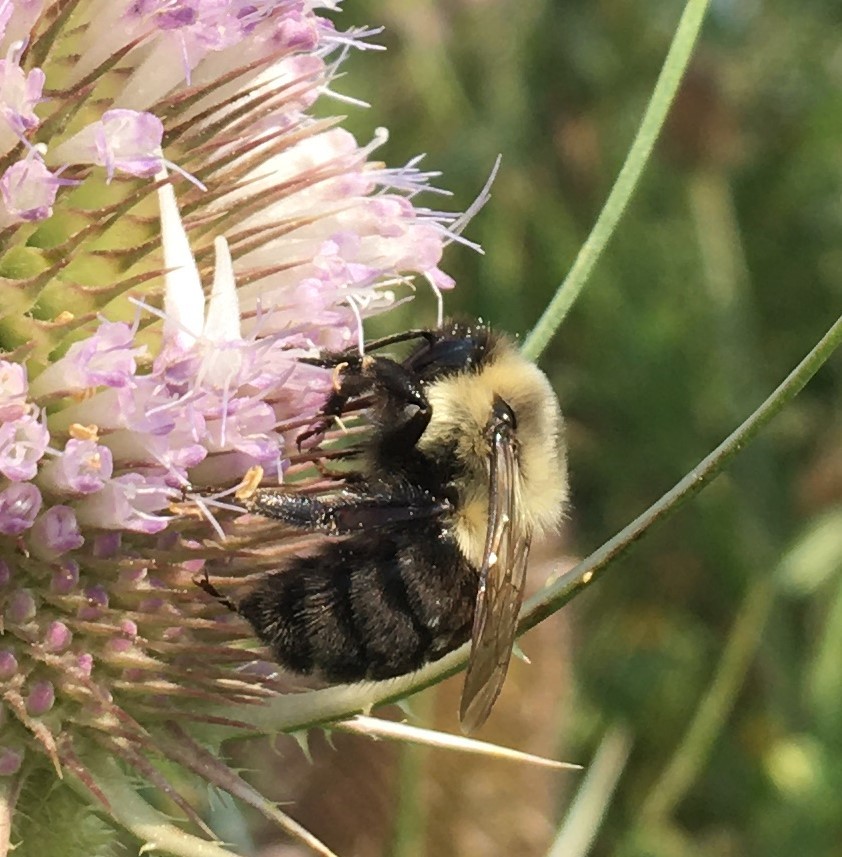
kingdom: Animalia
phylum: Arthropoda
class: Insecta
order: Hymenoptera
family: Apidae
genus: Bombus
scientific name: Bombus impatiens
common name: Common eastern bumble bee
